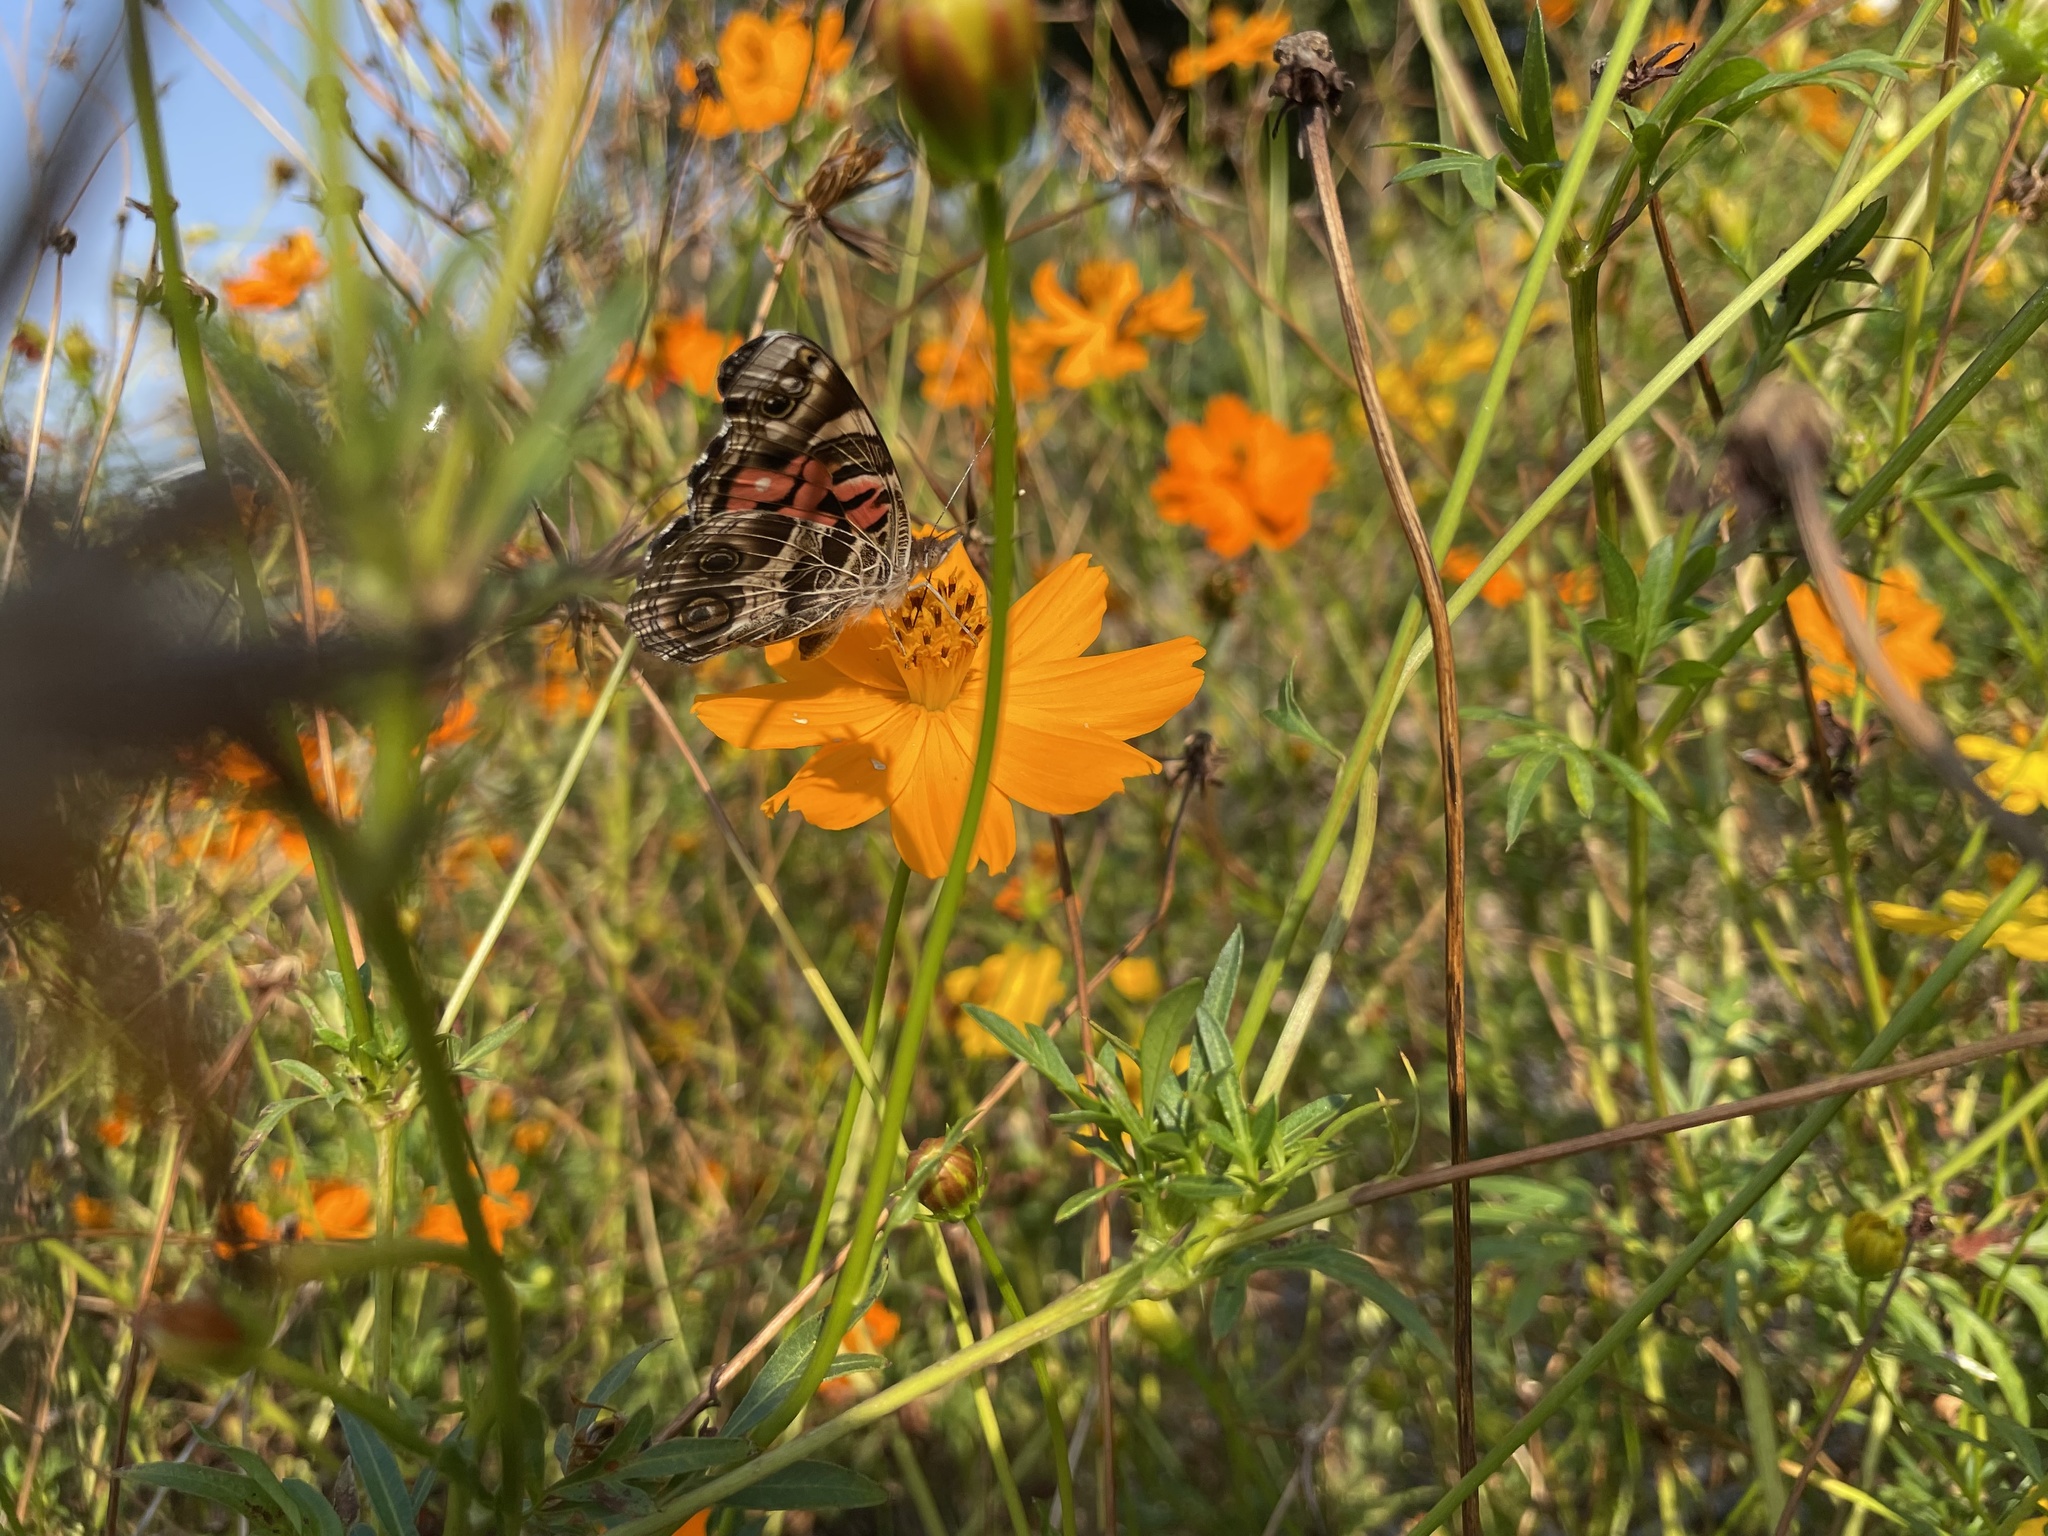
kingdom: Animalia
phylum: Arthropoda
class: Insecta
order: Lepidoptera
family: Nymphalidae
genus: Vanessa
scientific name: Vanessa virginiensis
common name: American lady
